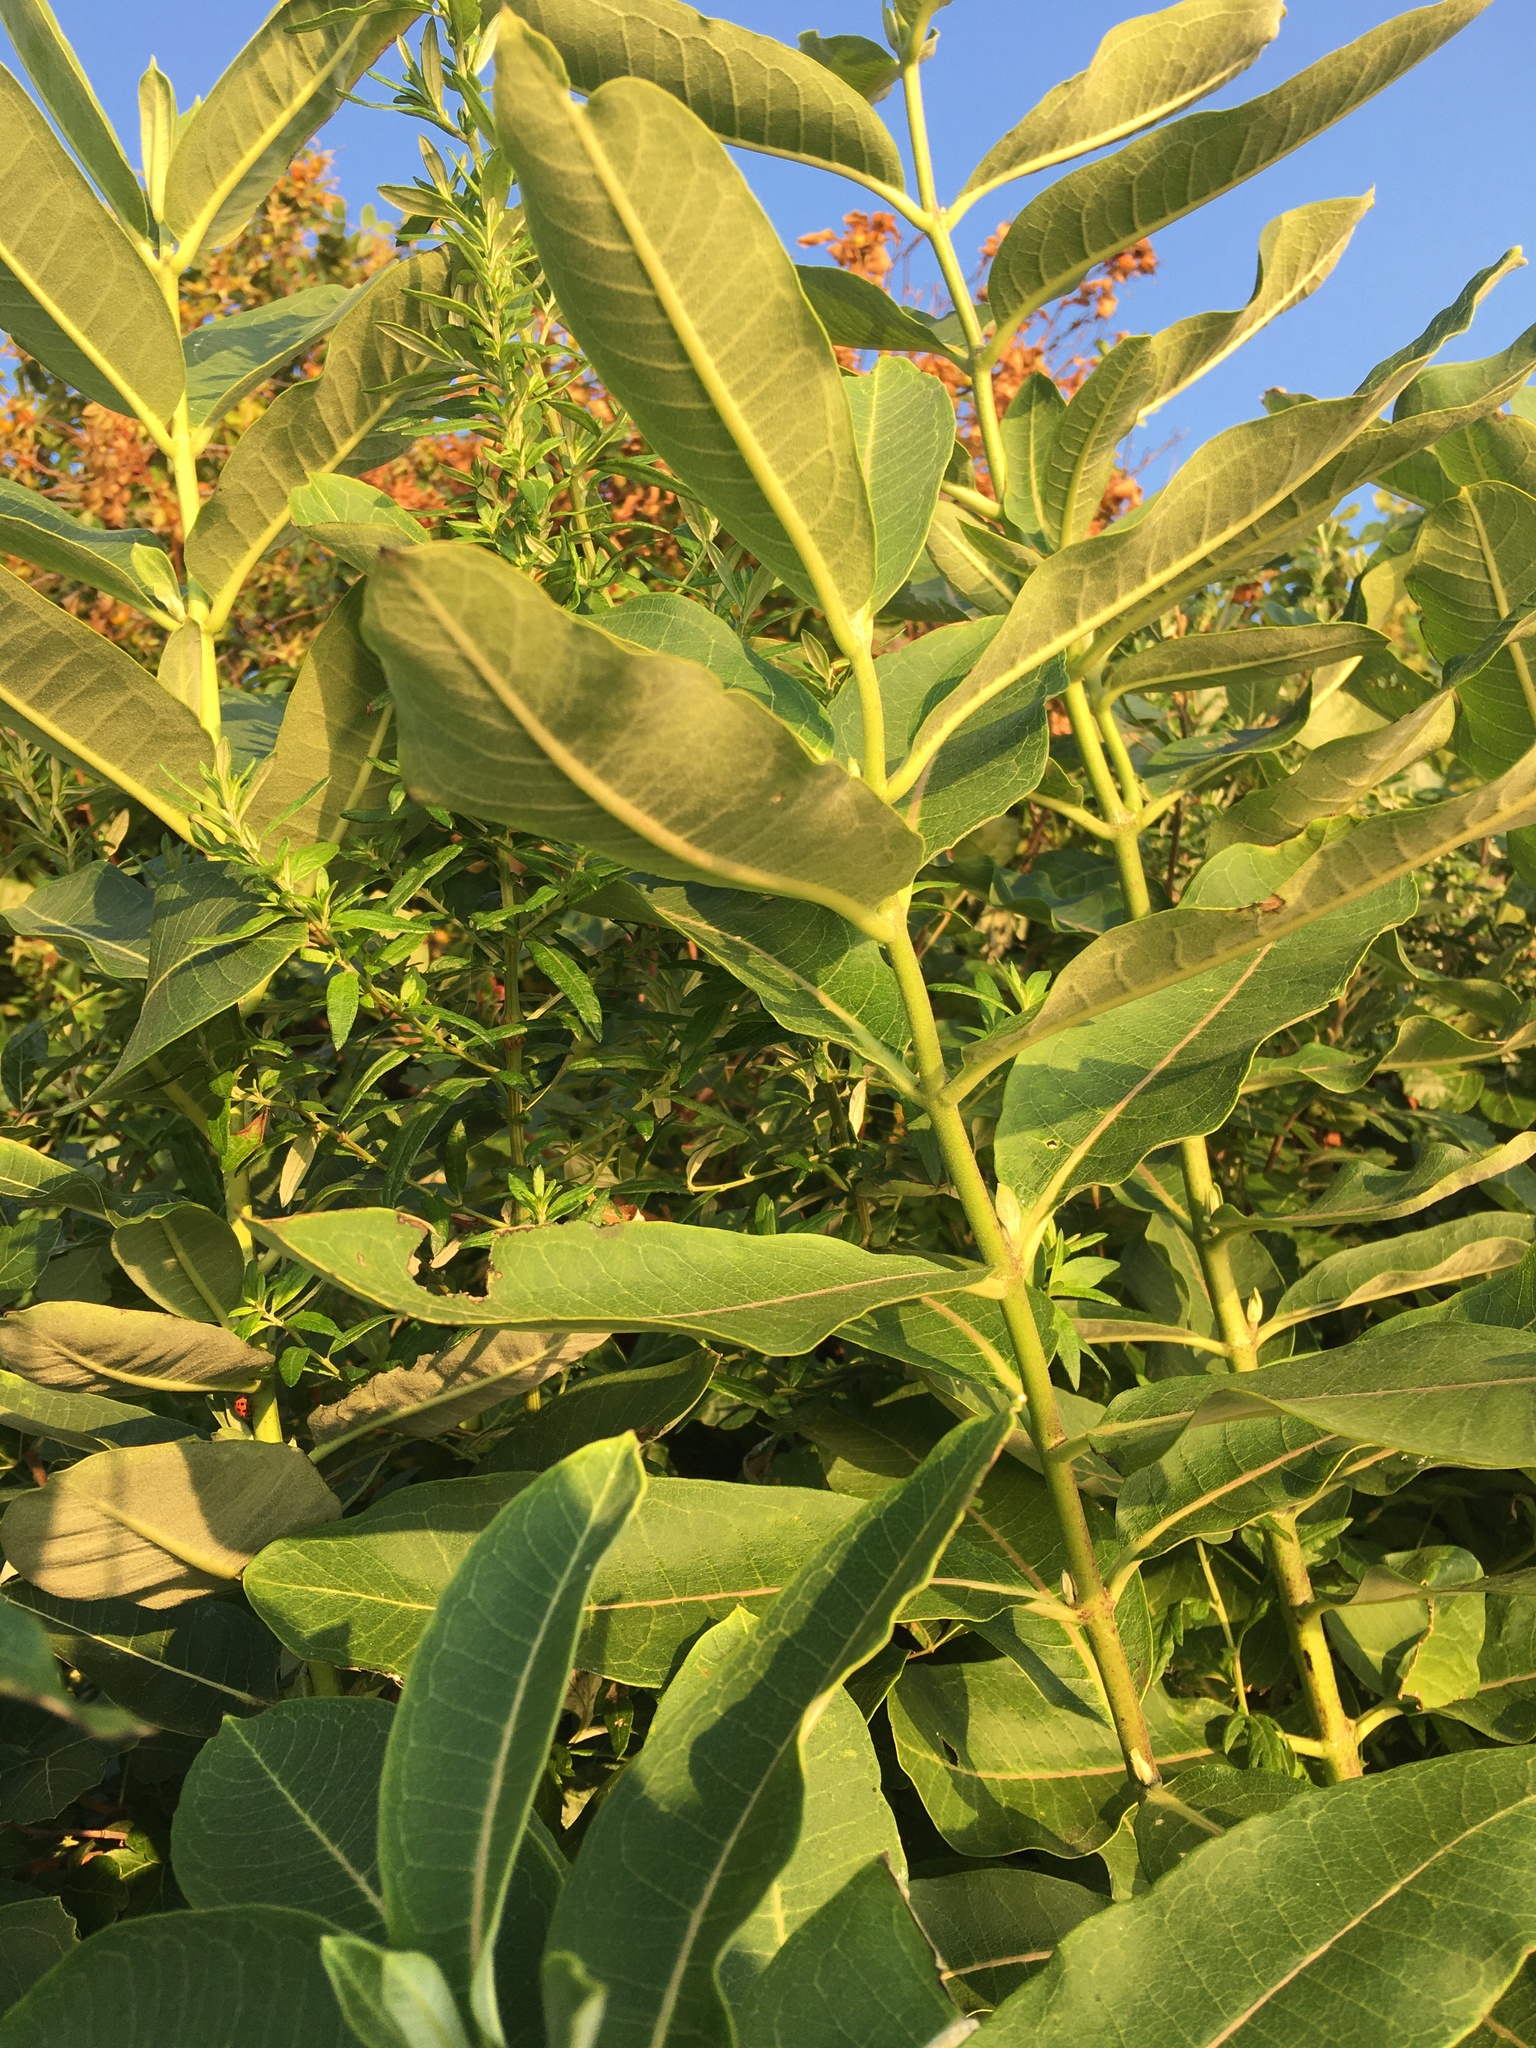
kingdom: Plantae
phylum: Tracheophyta
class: Magnoliopsida
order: Gentianales
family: Apocynaceae
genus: Asclepias
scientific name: Asclepias syriaca
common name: Common milkweed
